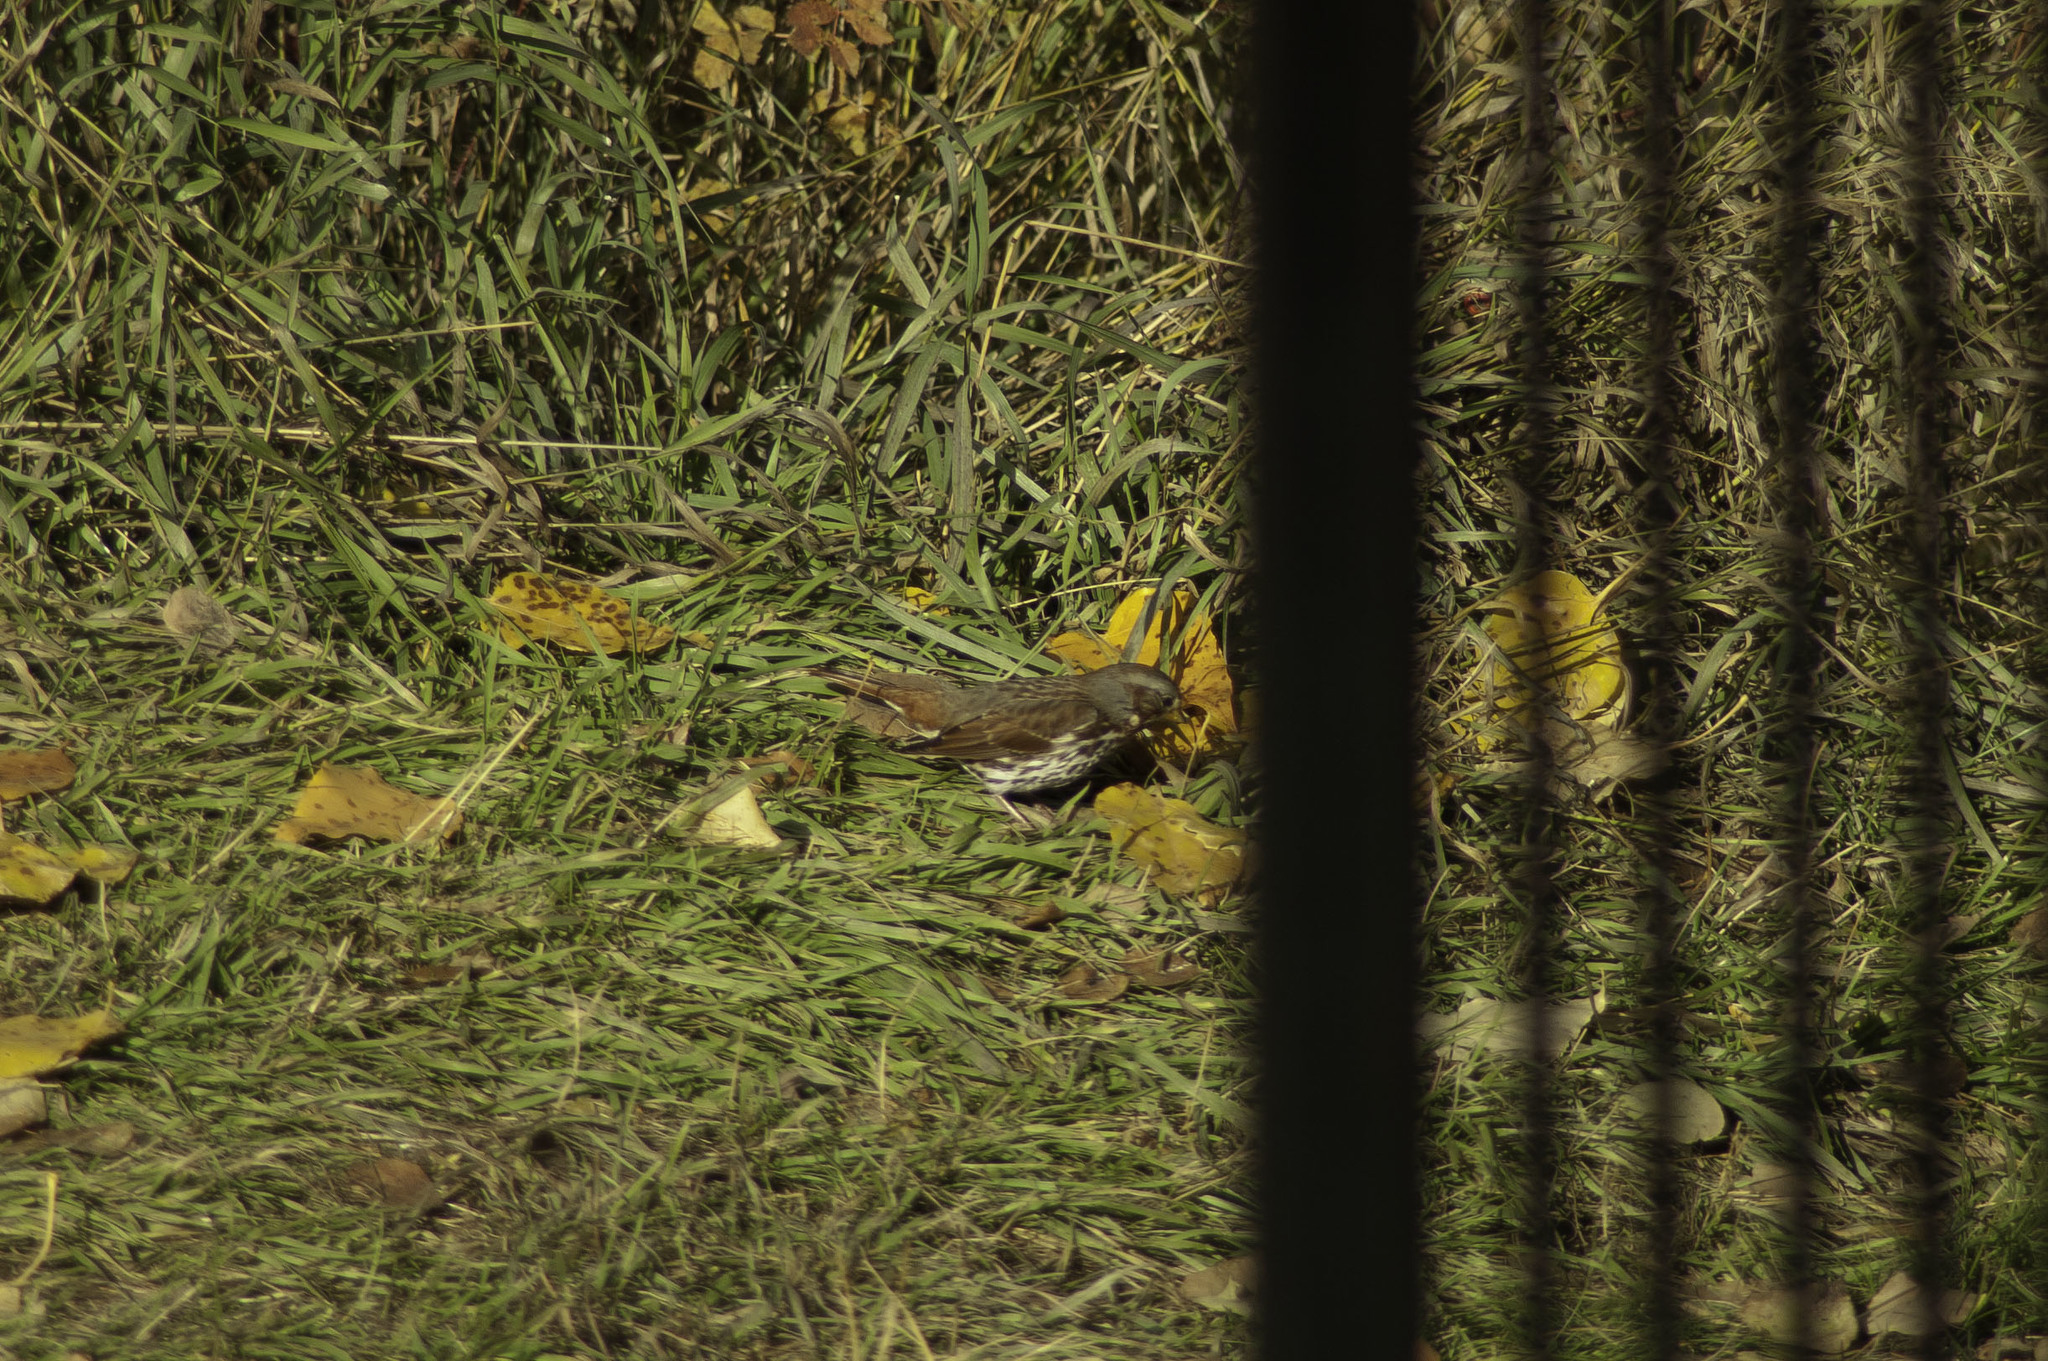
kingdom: Animalia
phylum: Chordata
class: Aves
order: Passeriformes
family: Passerellidae
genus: Passerella
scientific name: Passerella iliaca
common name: Fox sparrow
